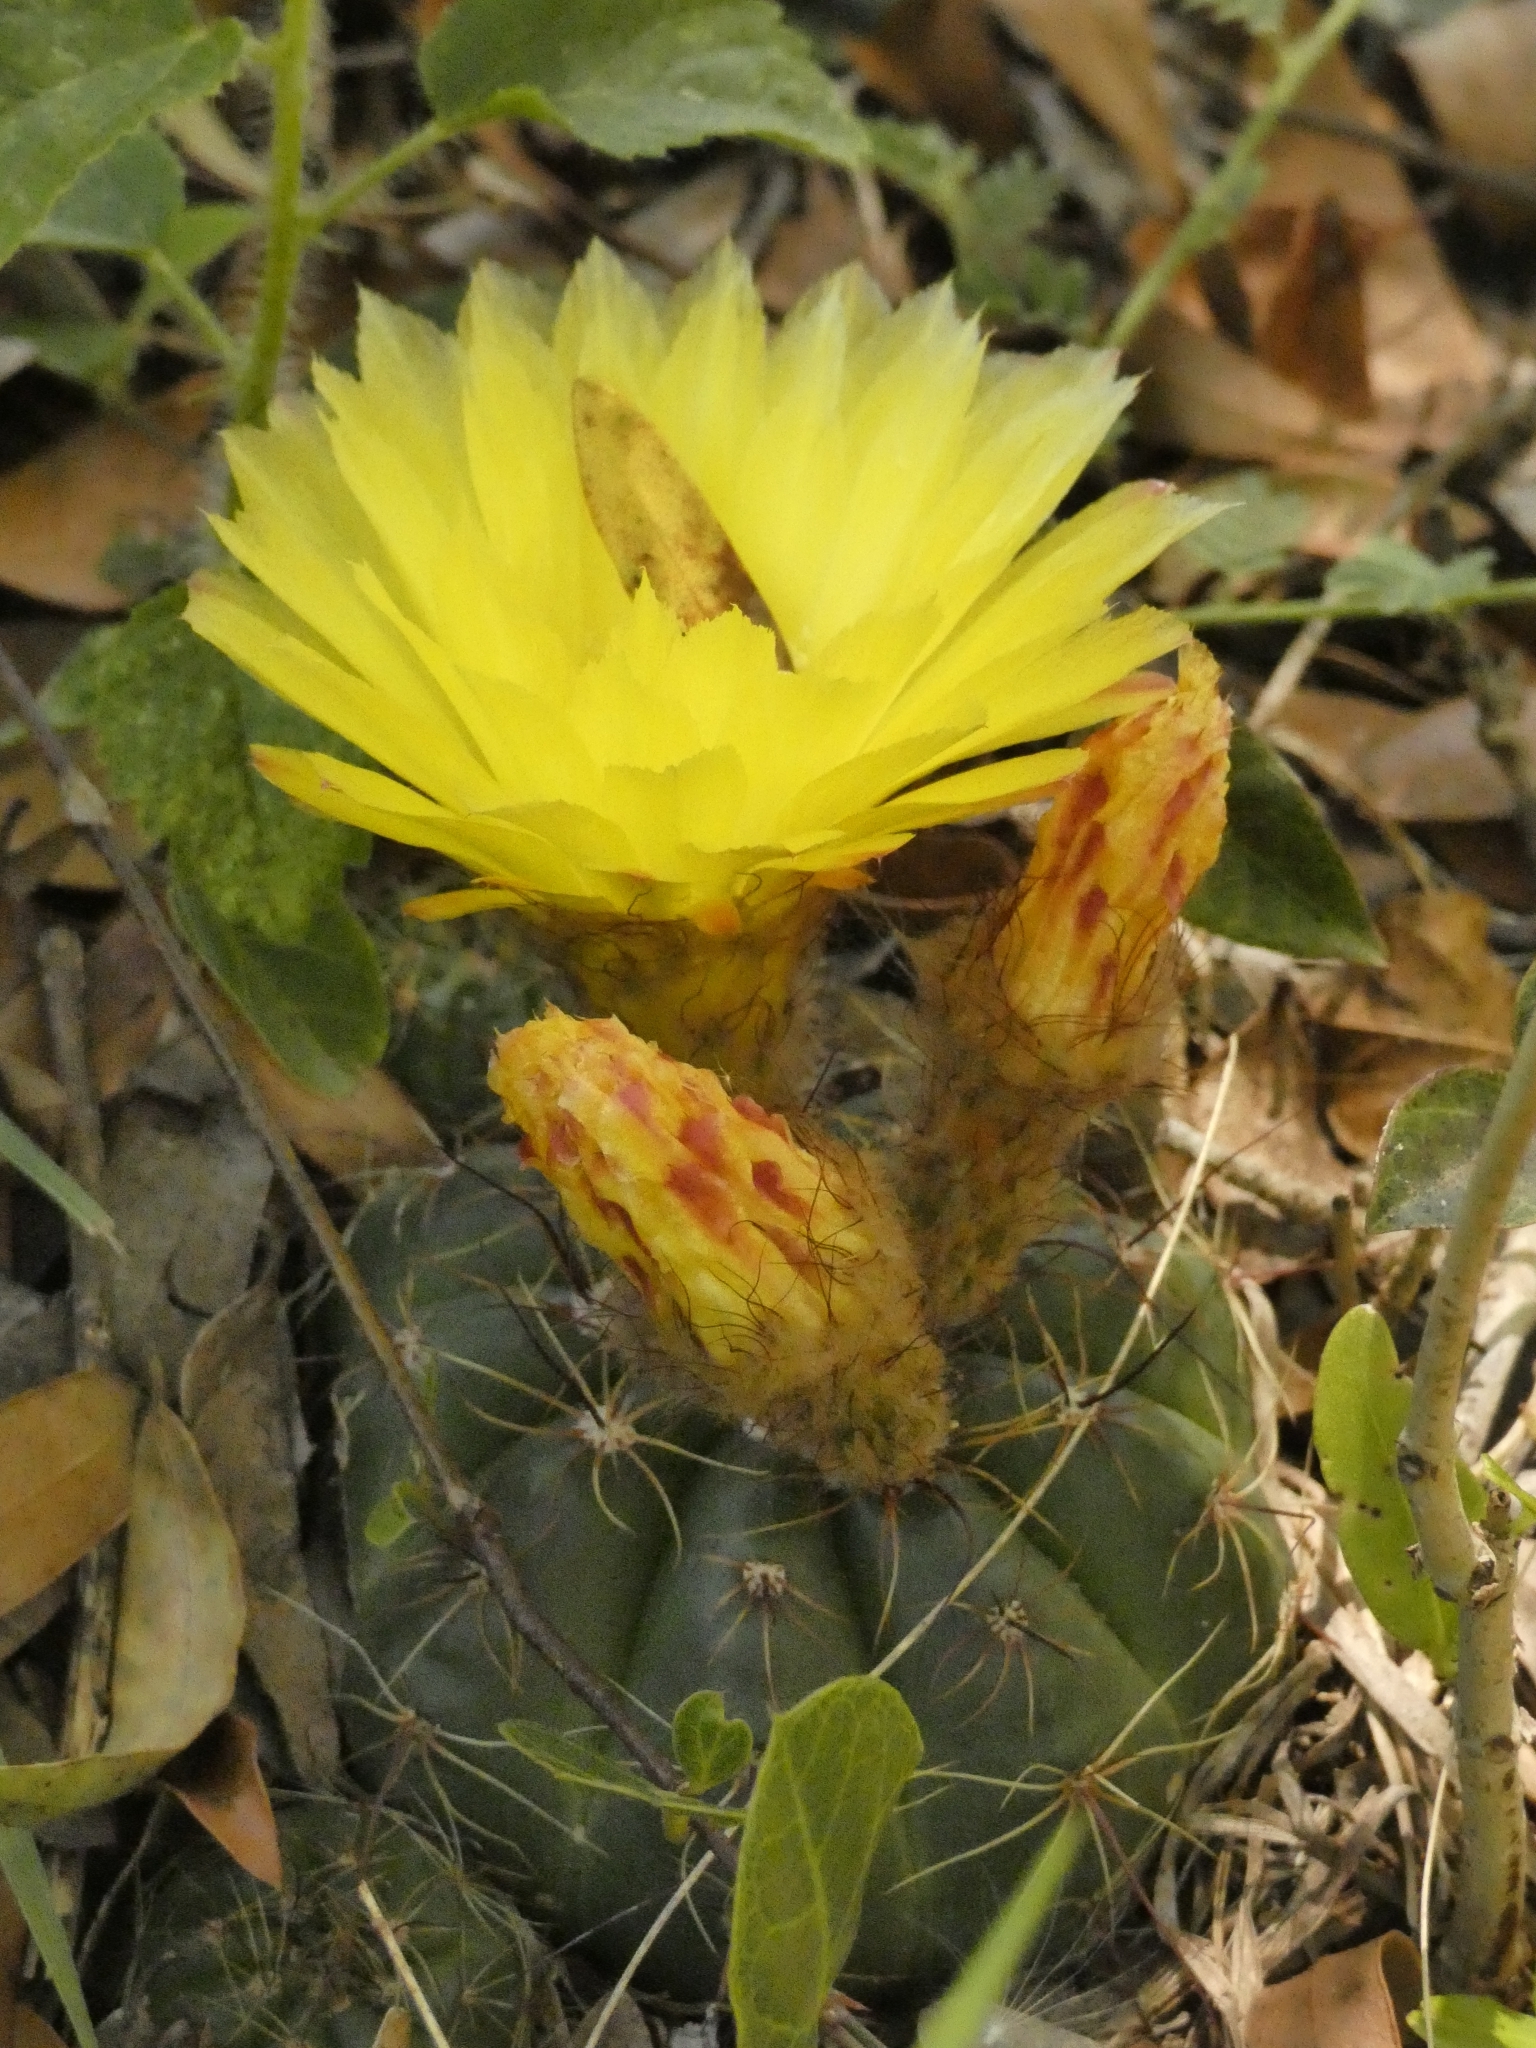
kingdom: Plantae
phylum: Tracheophyta
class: Magnoliopsida
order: Caryophyllales
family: Cactaceae
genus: Parodia
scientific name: Parodia ottonis
